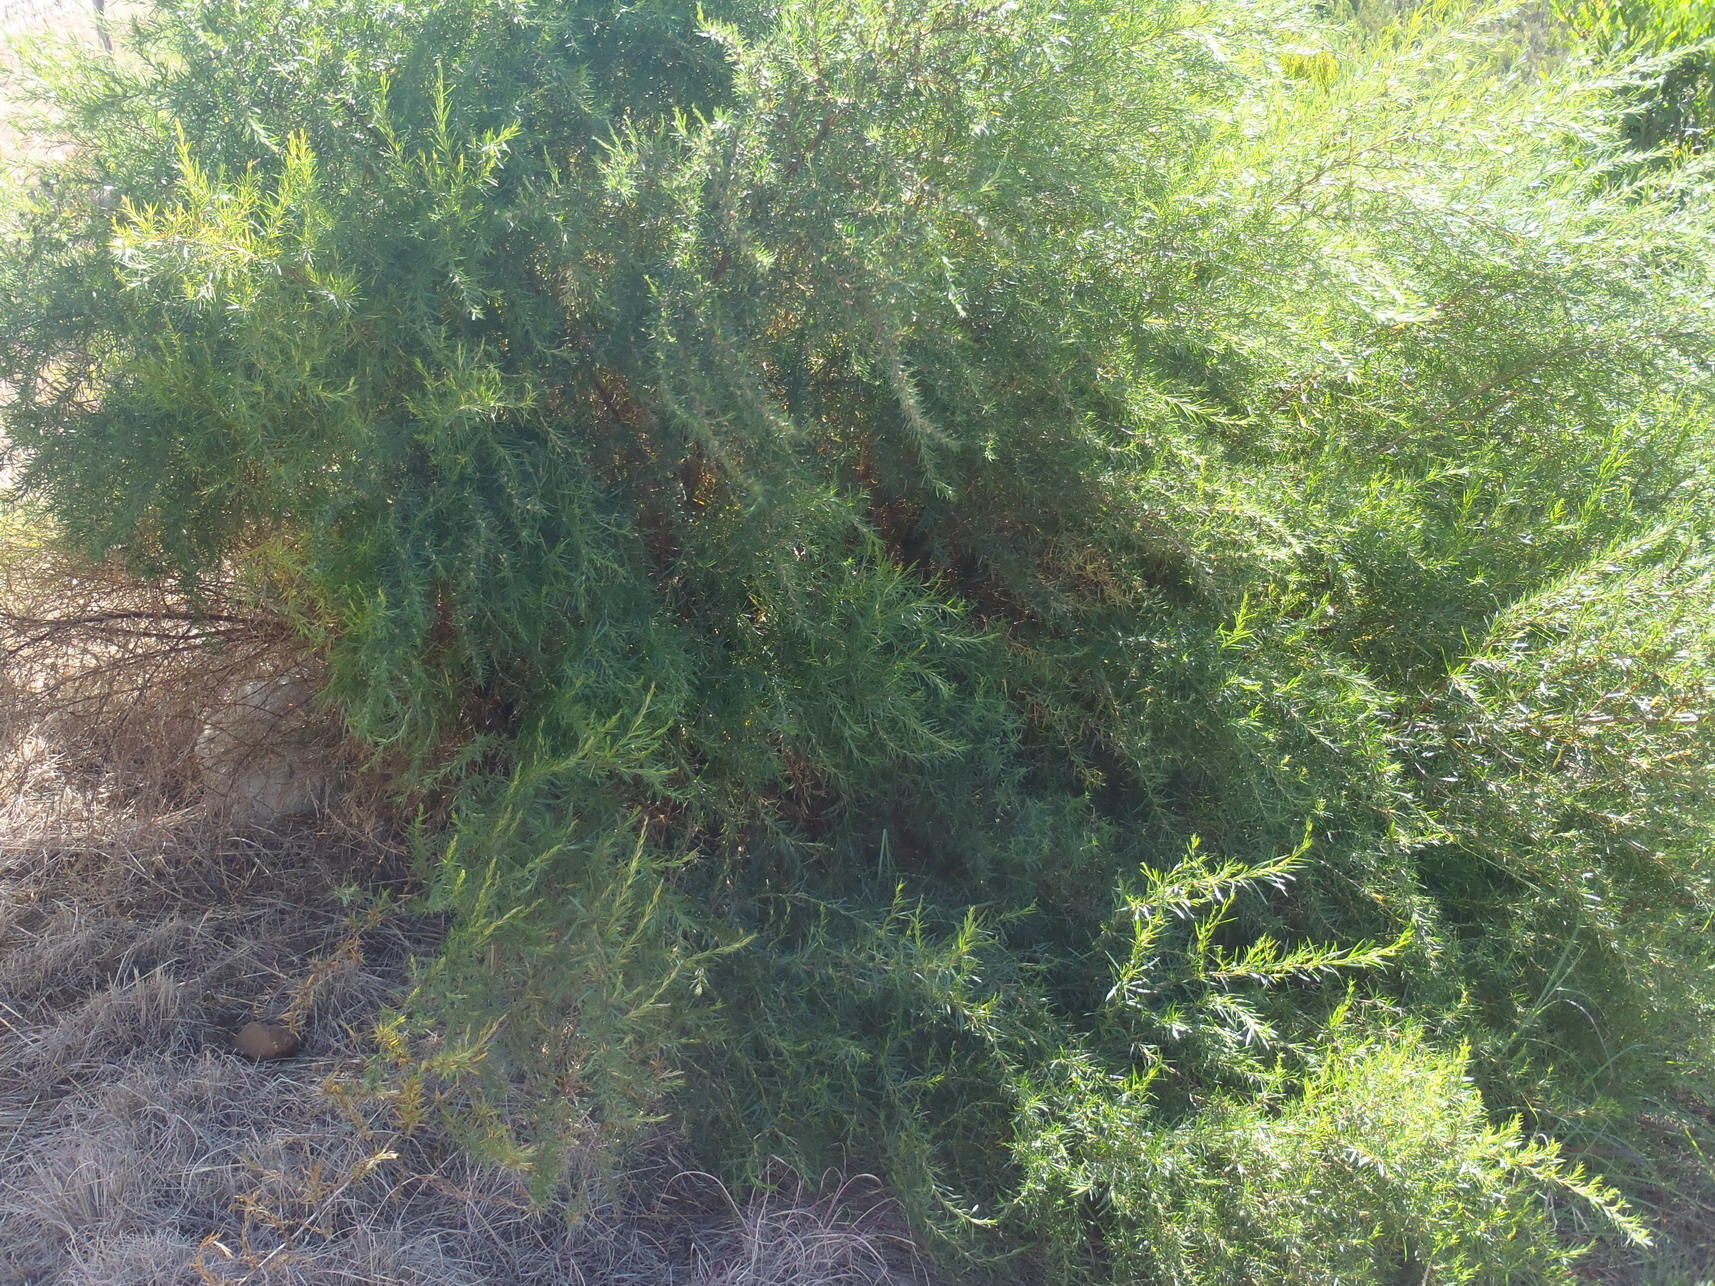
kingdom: Plantae
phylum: Tracheophyta
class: Magnoliopsida
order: Rosales
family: Rosaceae
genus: Cliffortia
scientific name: Cliffortia strobilifera
